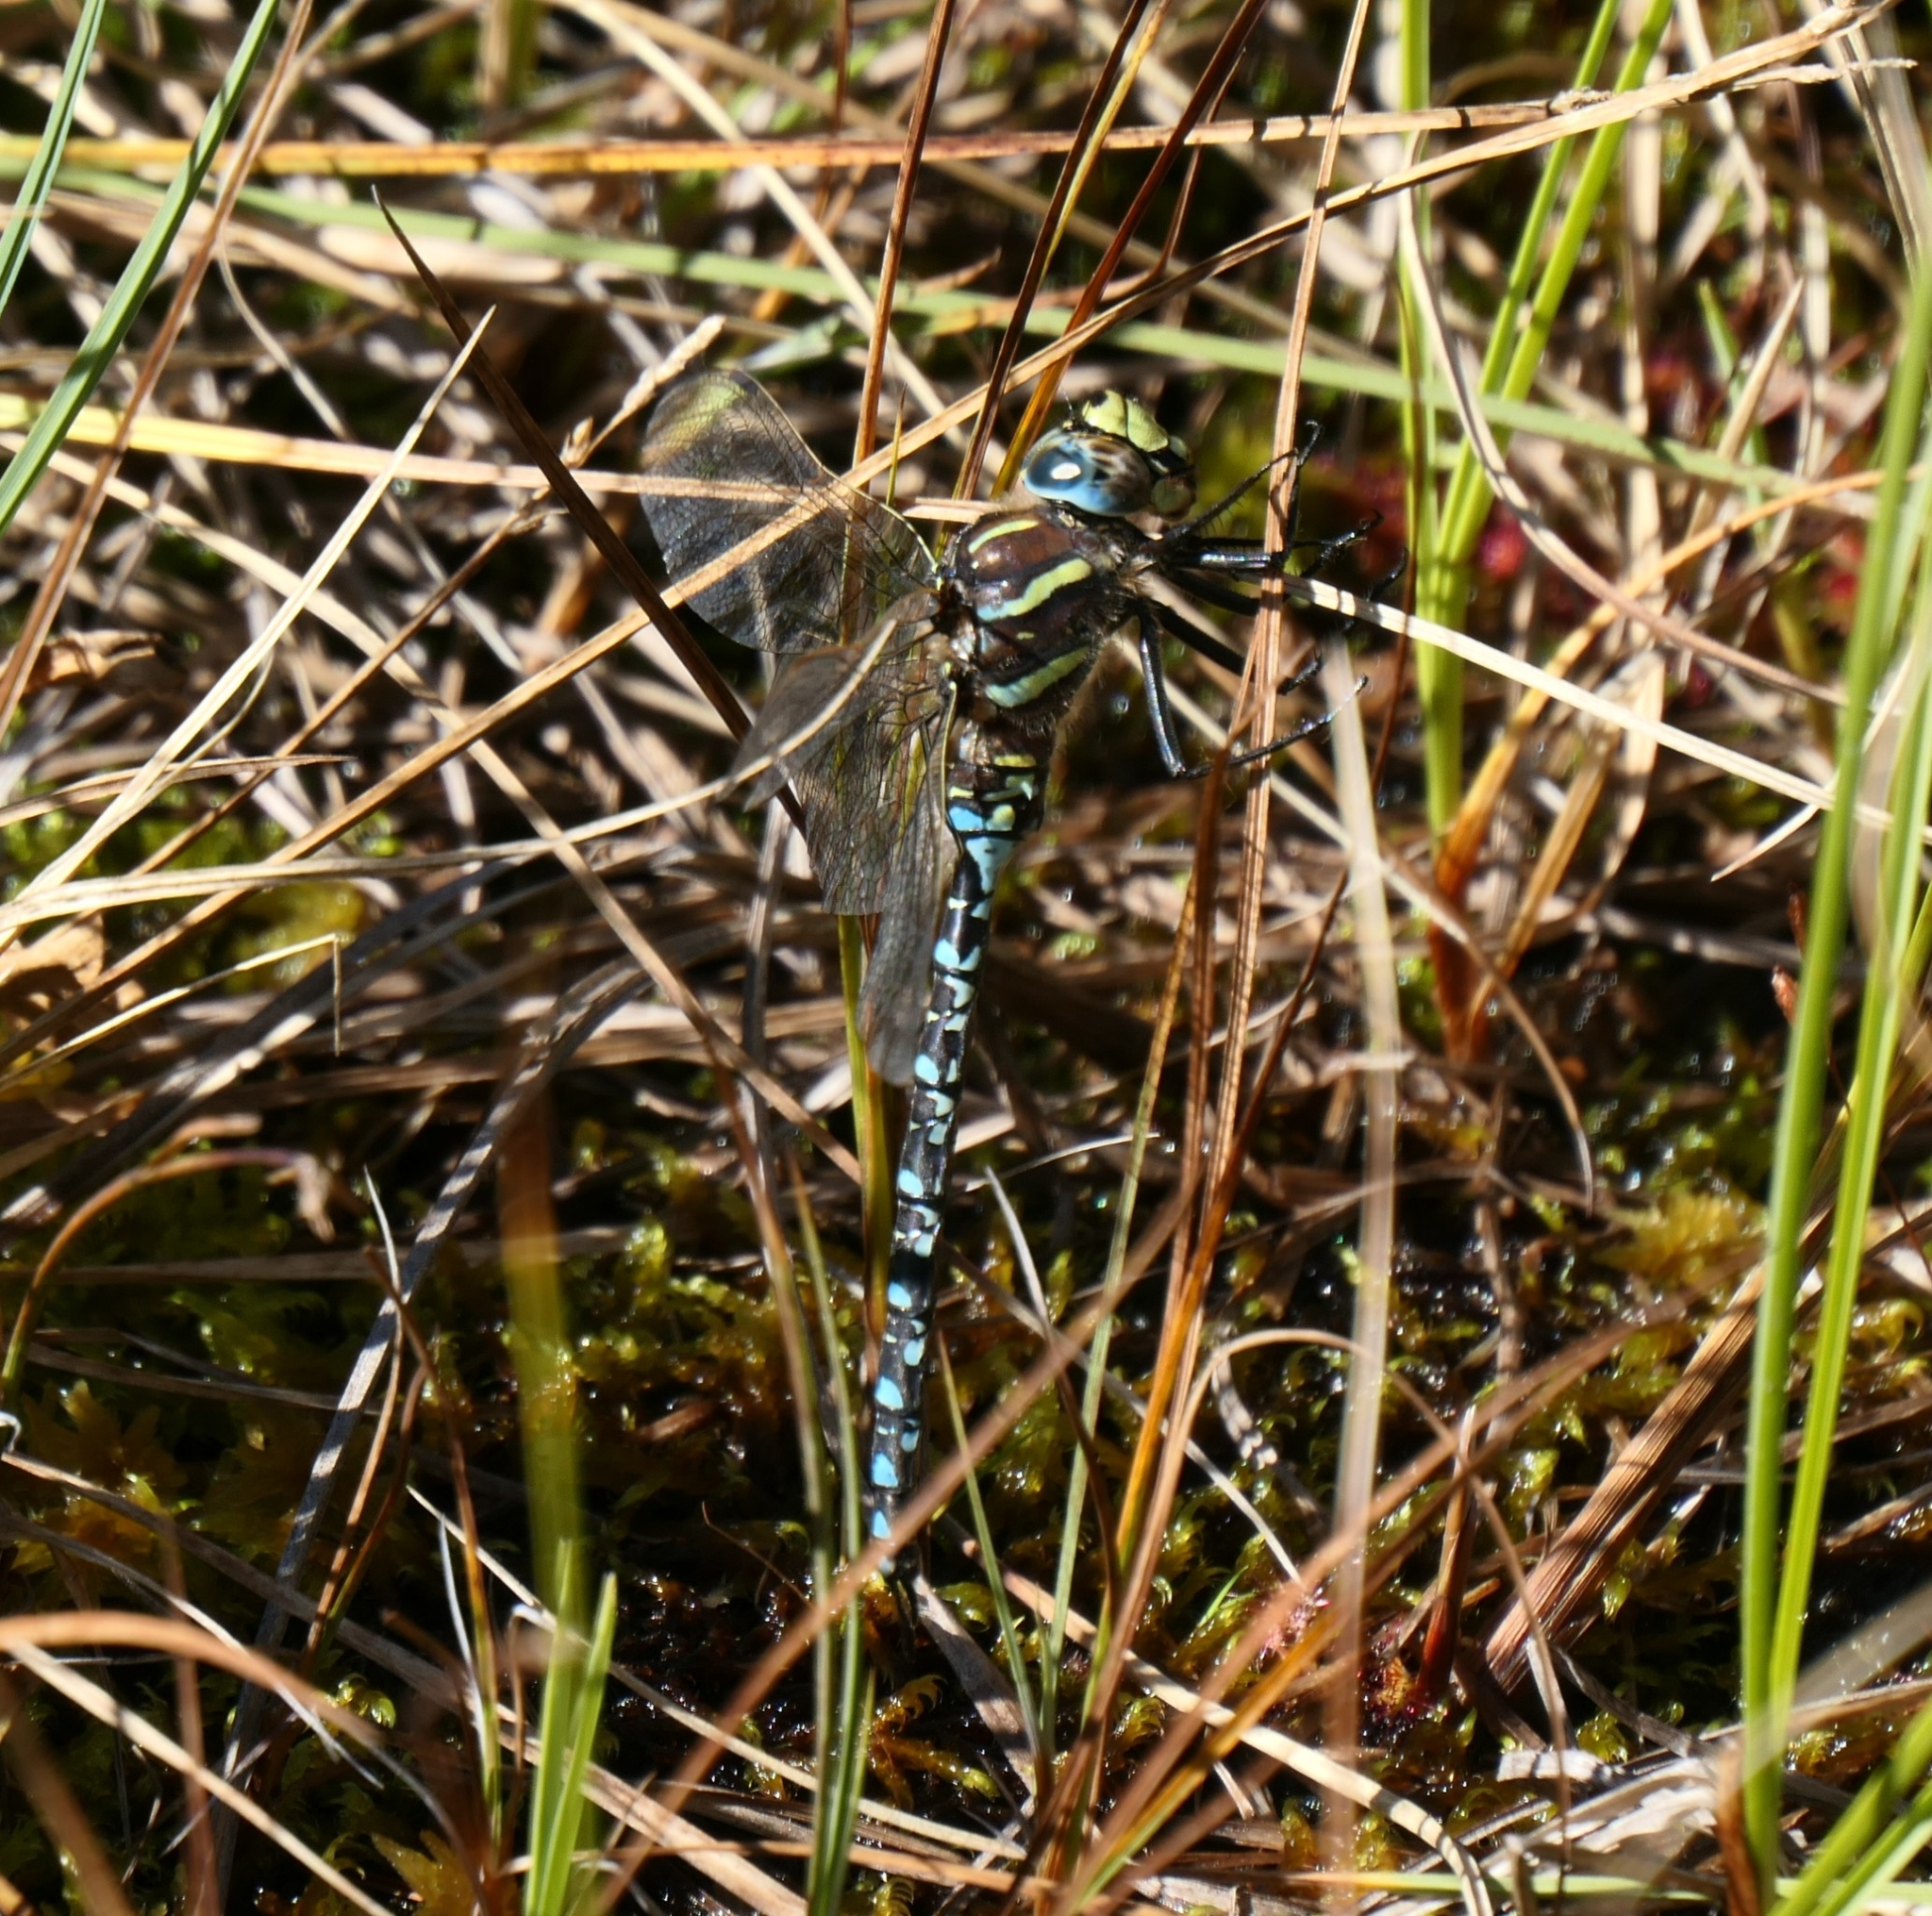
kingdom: Animalia
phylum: Arthropoda
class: Insecta
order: Odonata
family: Aeshnidae
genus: Aeshna
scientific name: Aeshna juncea
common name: Moorland hawker
